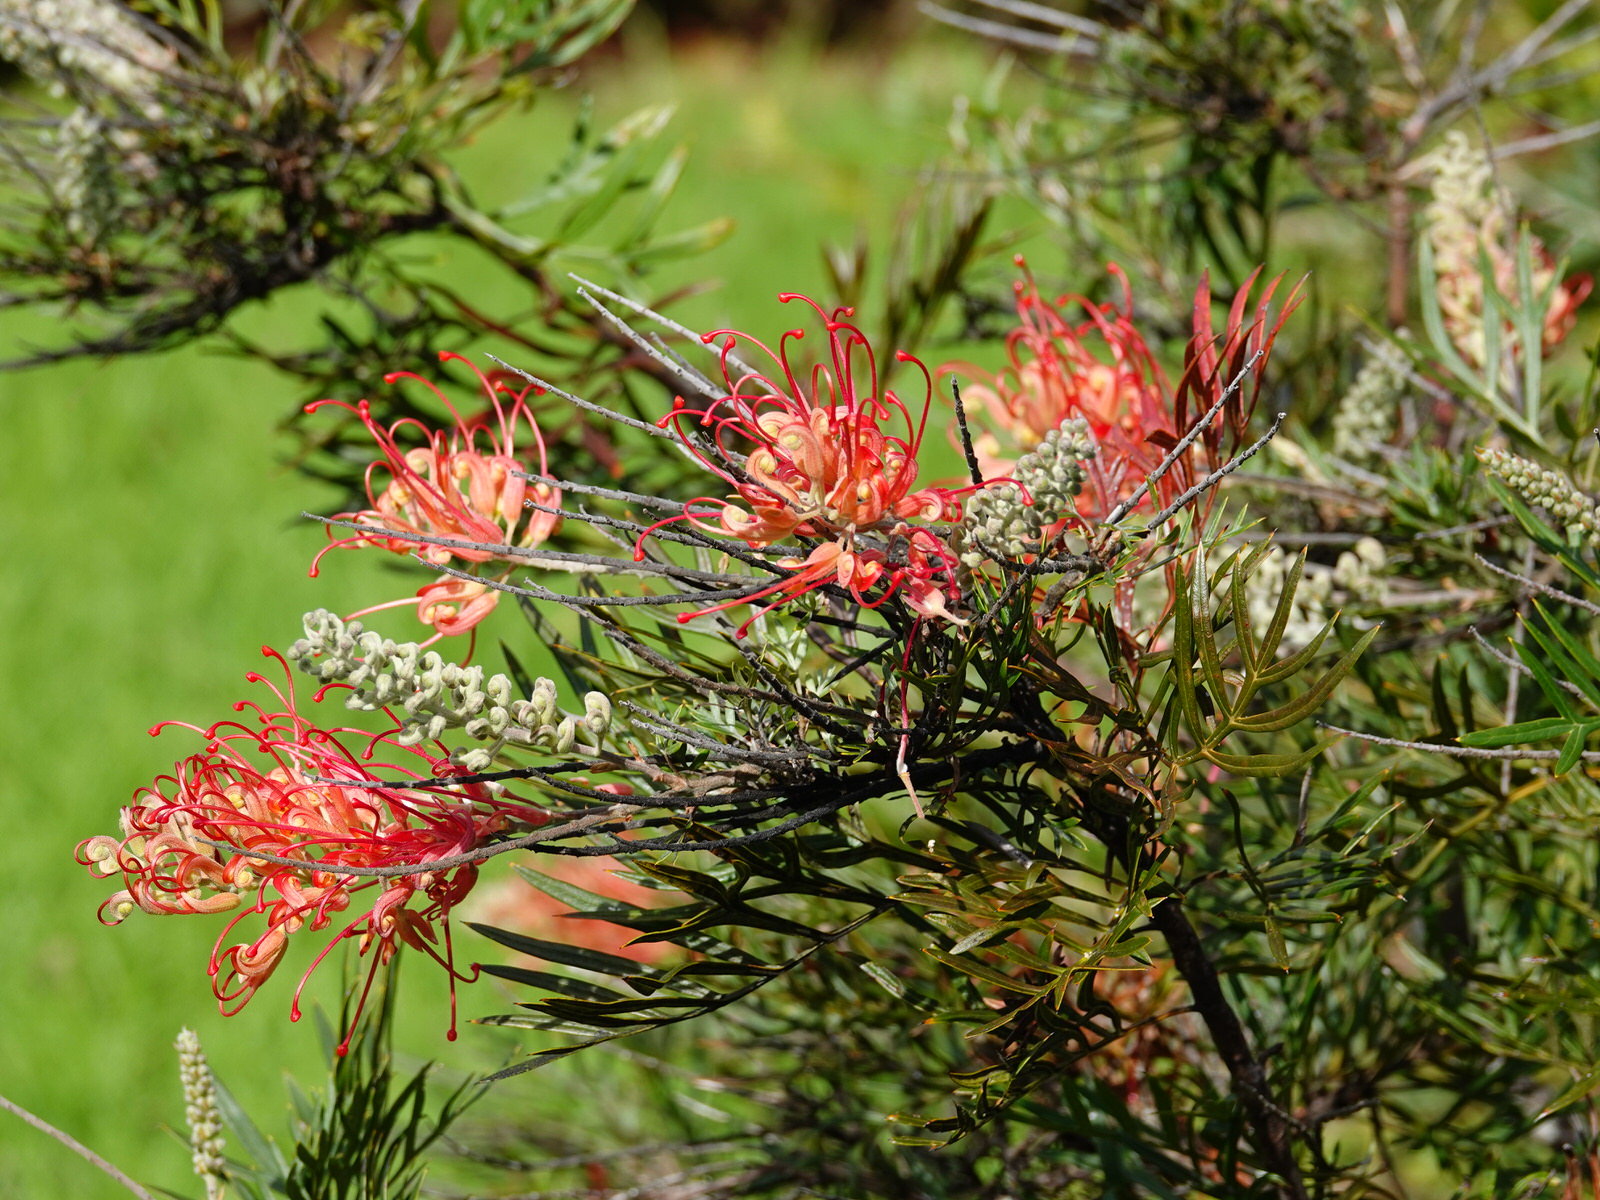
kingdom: Animalia
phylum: Arthropoda
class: Insecta
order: Hymenoptera
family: Apidae
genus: Apis
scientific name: Apis mellifera
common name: Honey bee
